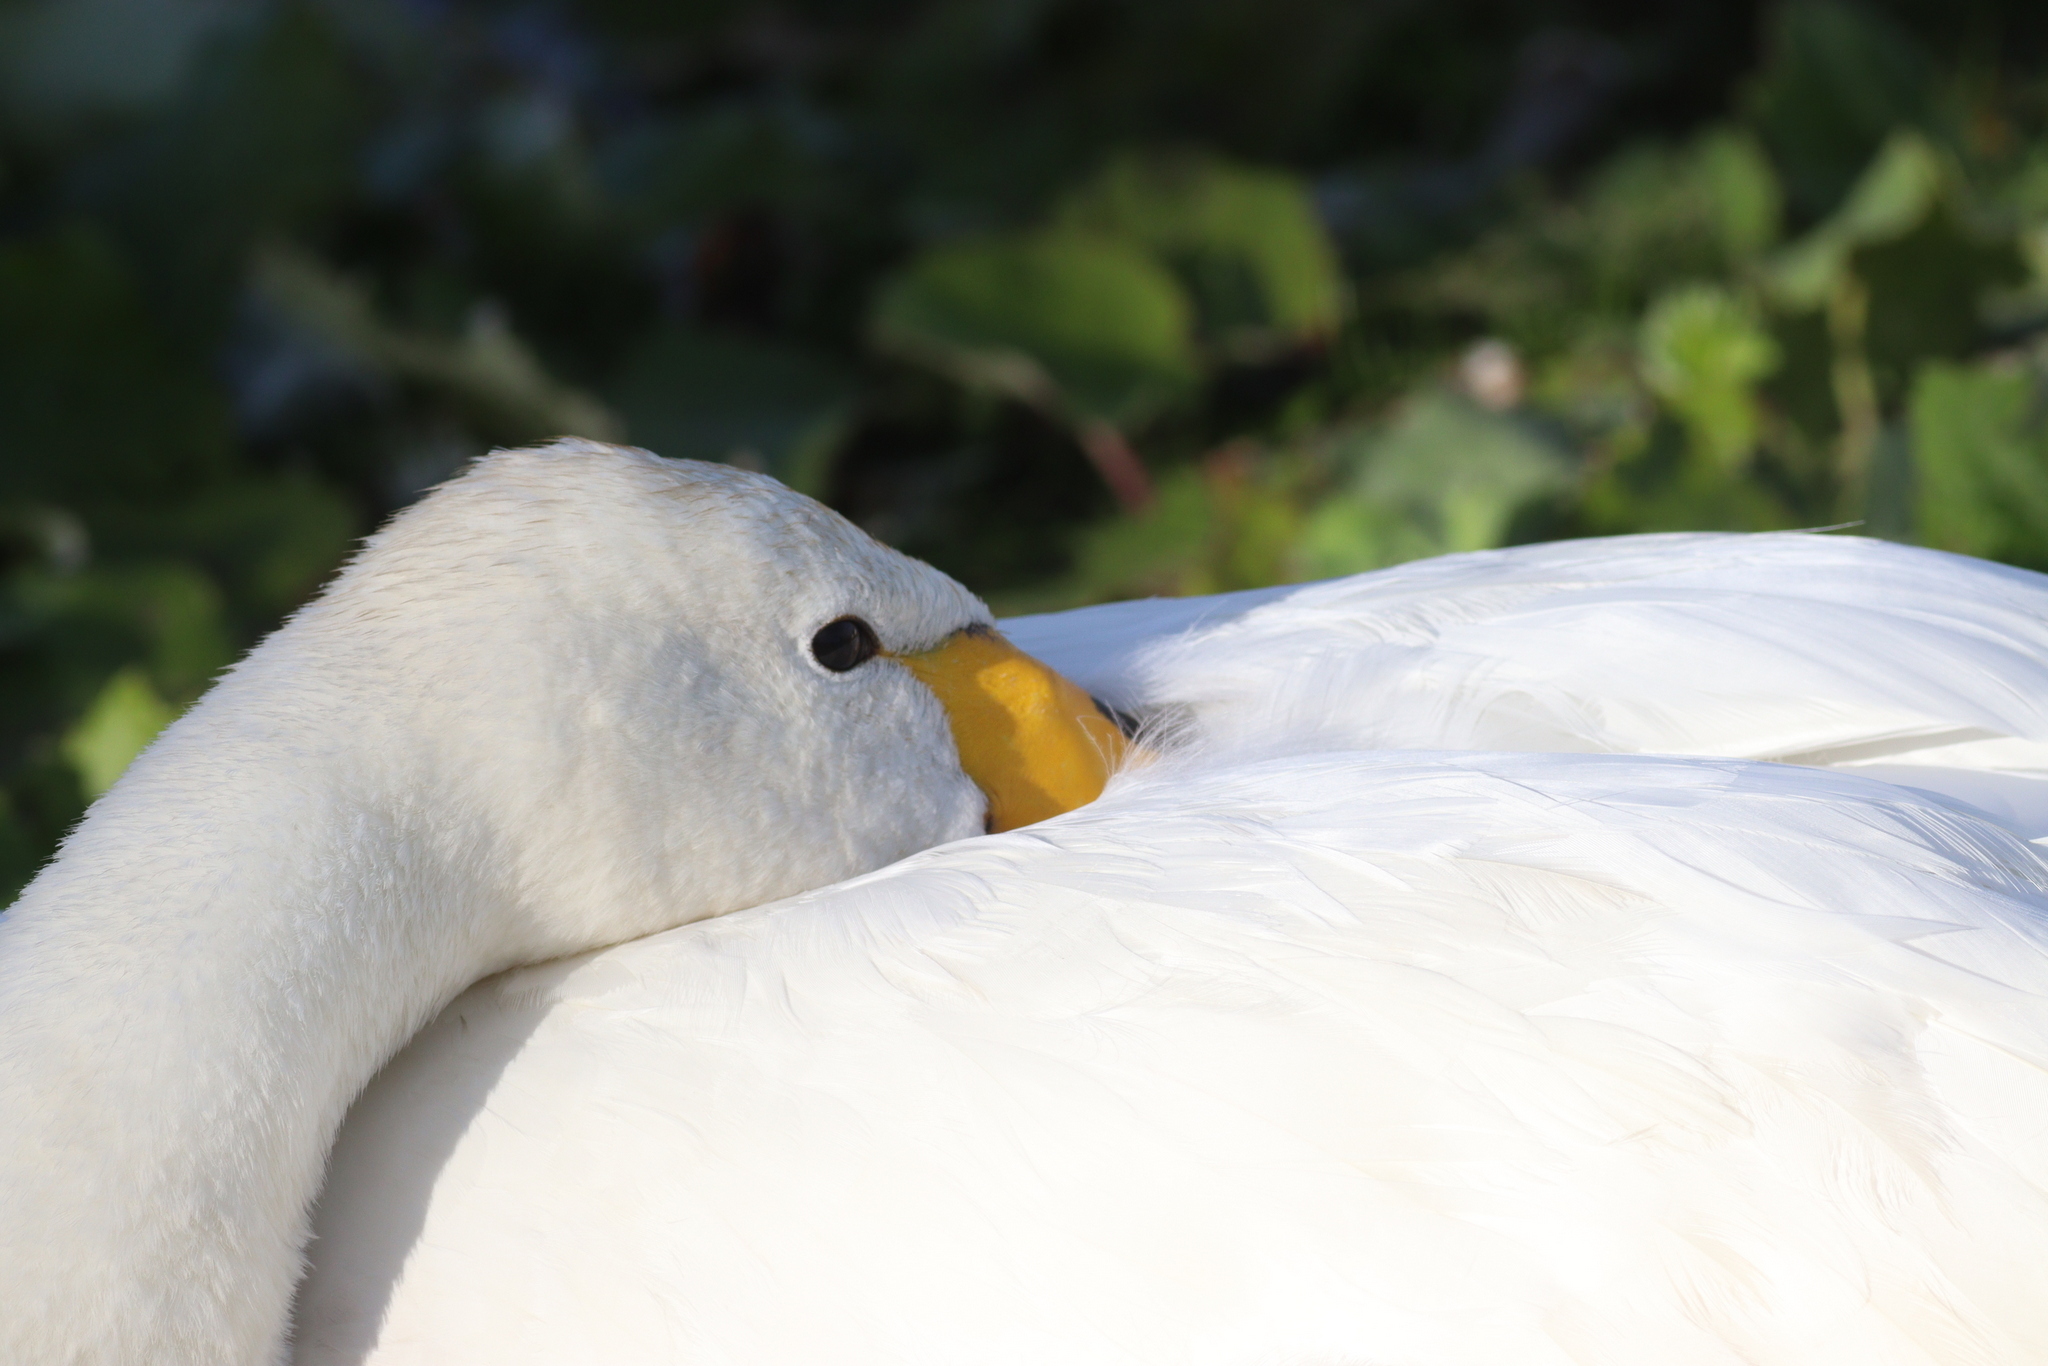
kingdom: Animalia
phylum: Chordata
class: Aves
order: Anseriformes
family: Anatidae
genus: Cygnus
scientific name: Cygnus cygnus
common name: Whooper swan
